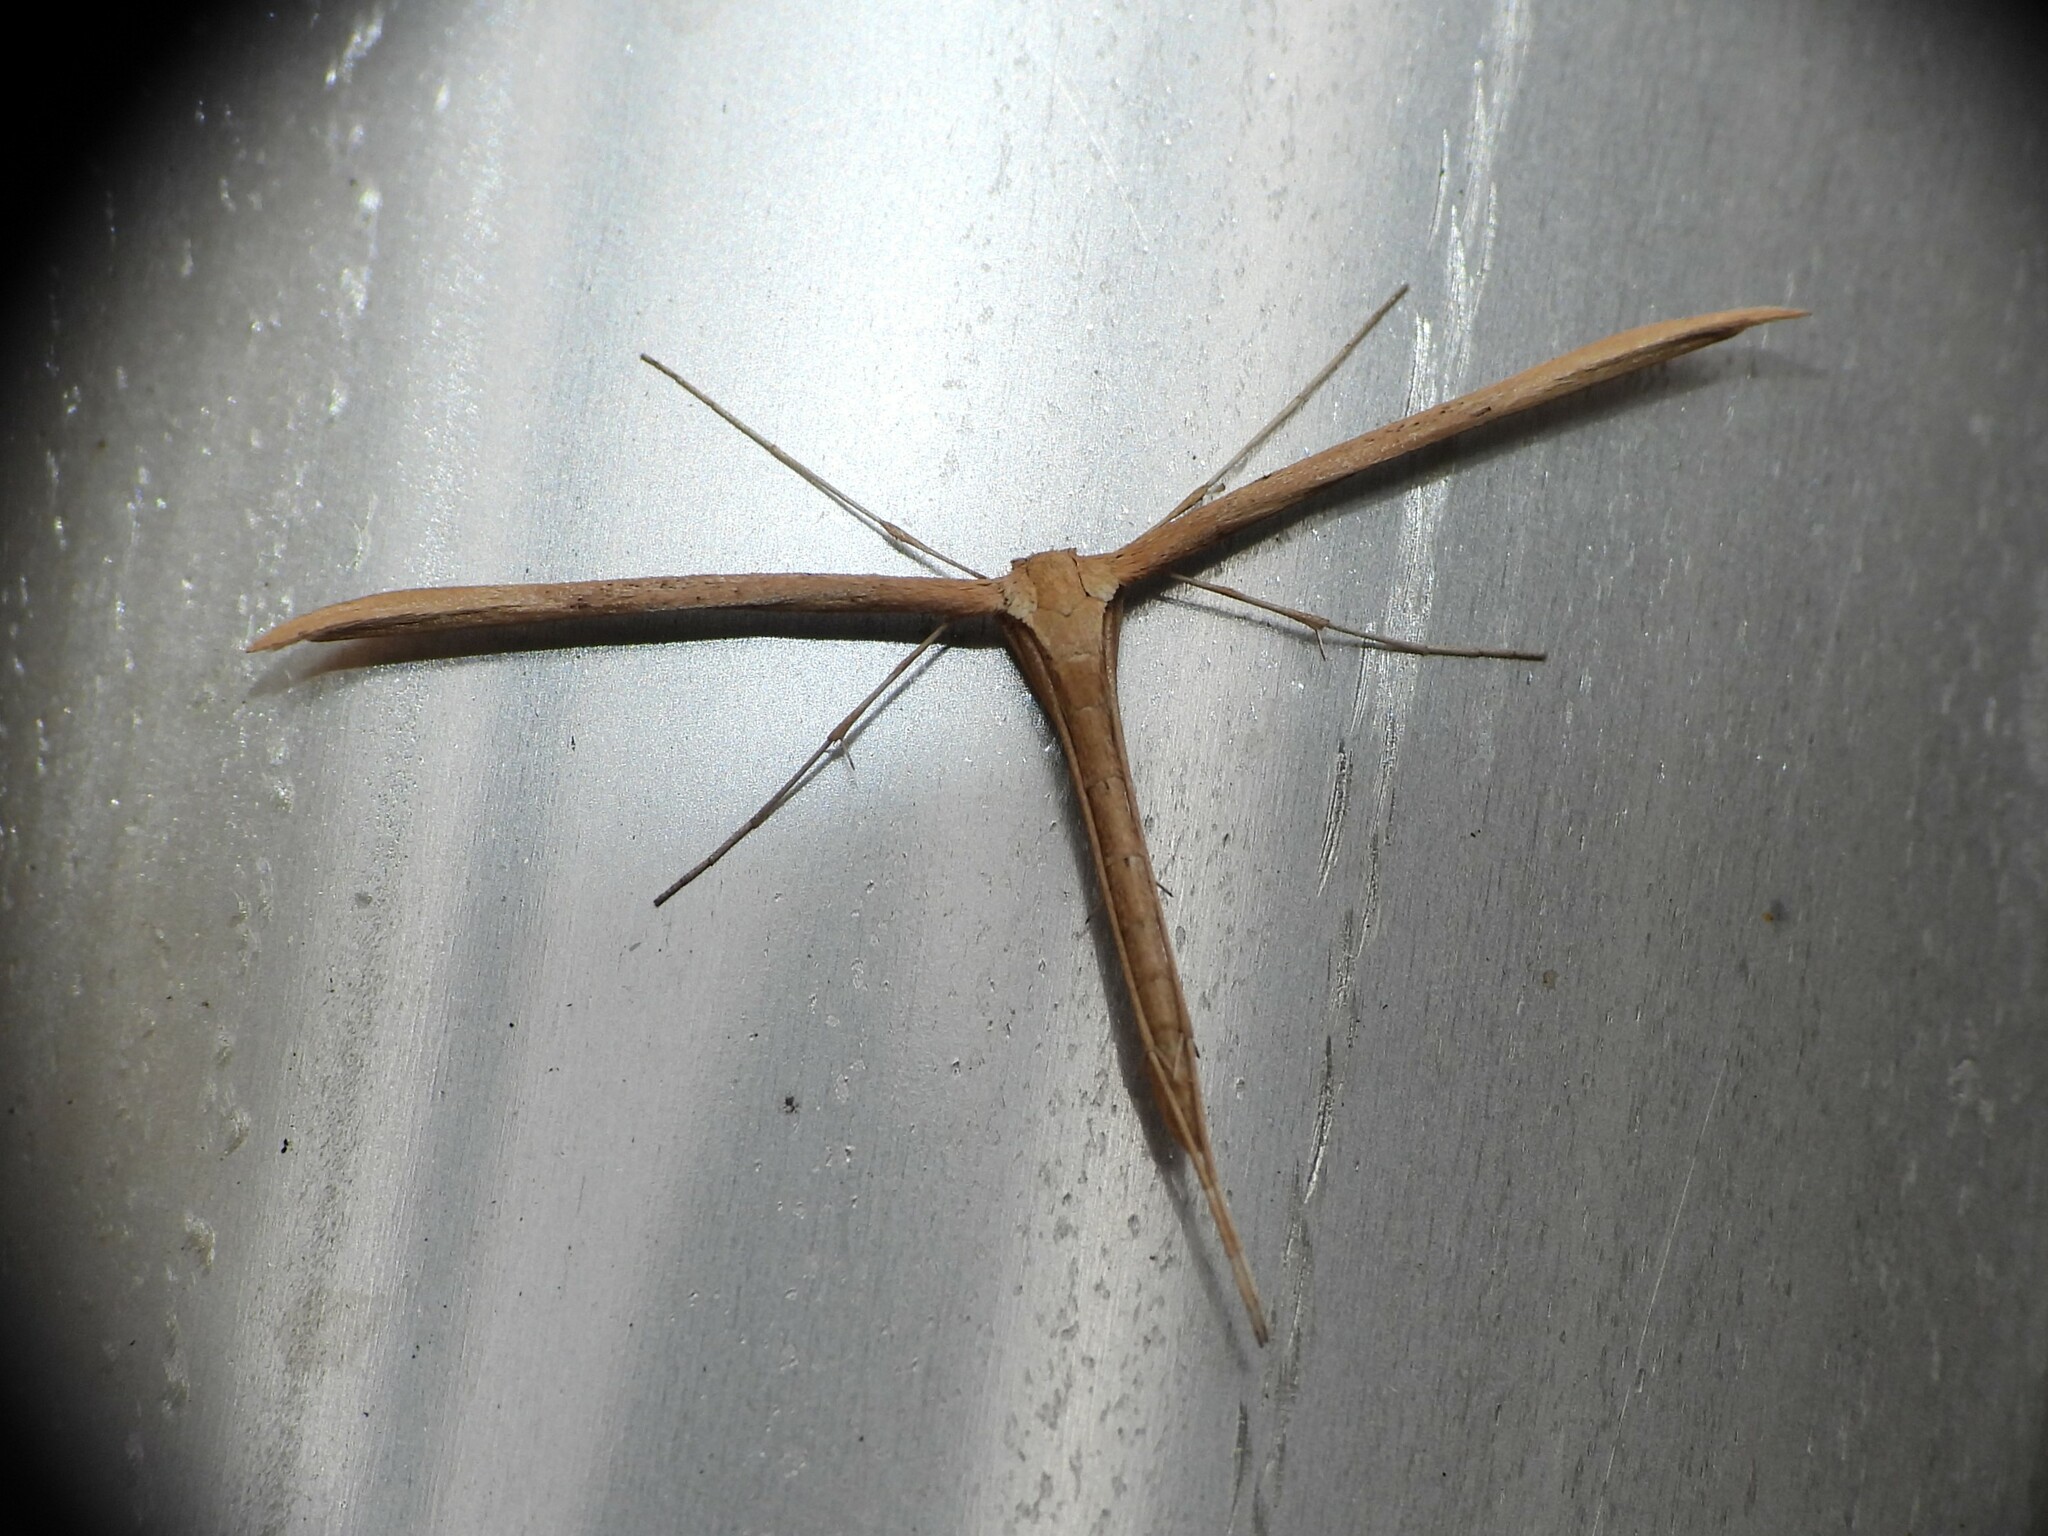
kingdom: Animalia
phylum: Arthropoda
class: Insecta
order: Lepidoptera
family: Pterophoridae
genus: Emmelina
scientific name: Emmelina monodactyla
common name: Common plume
